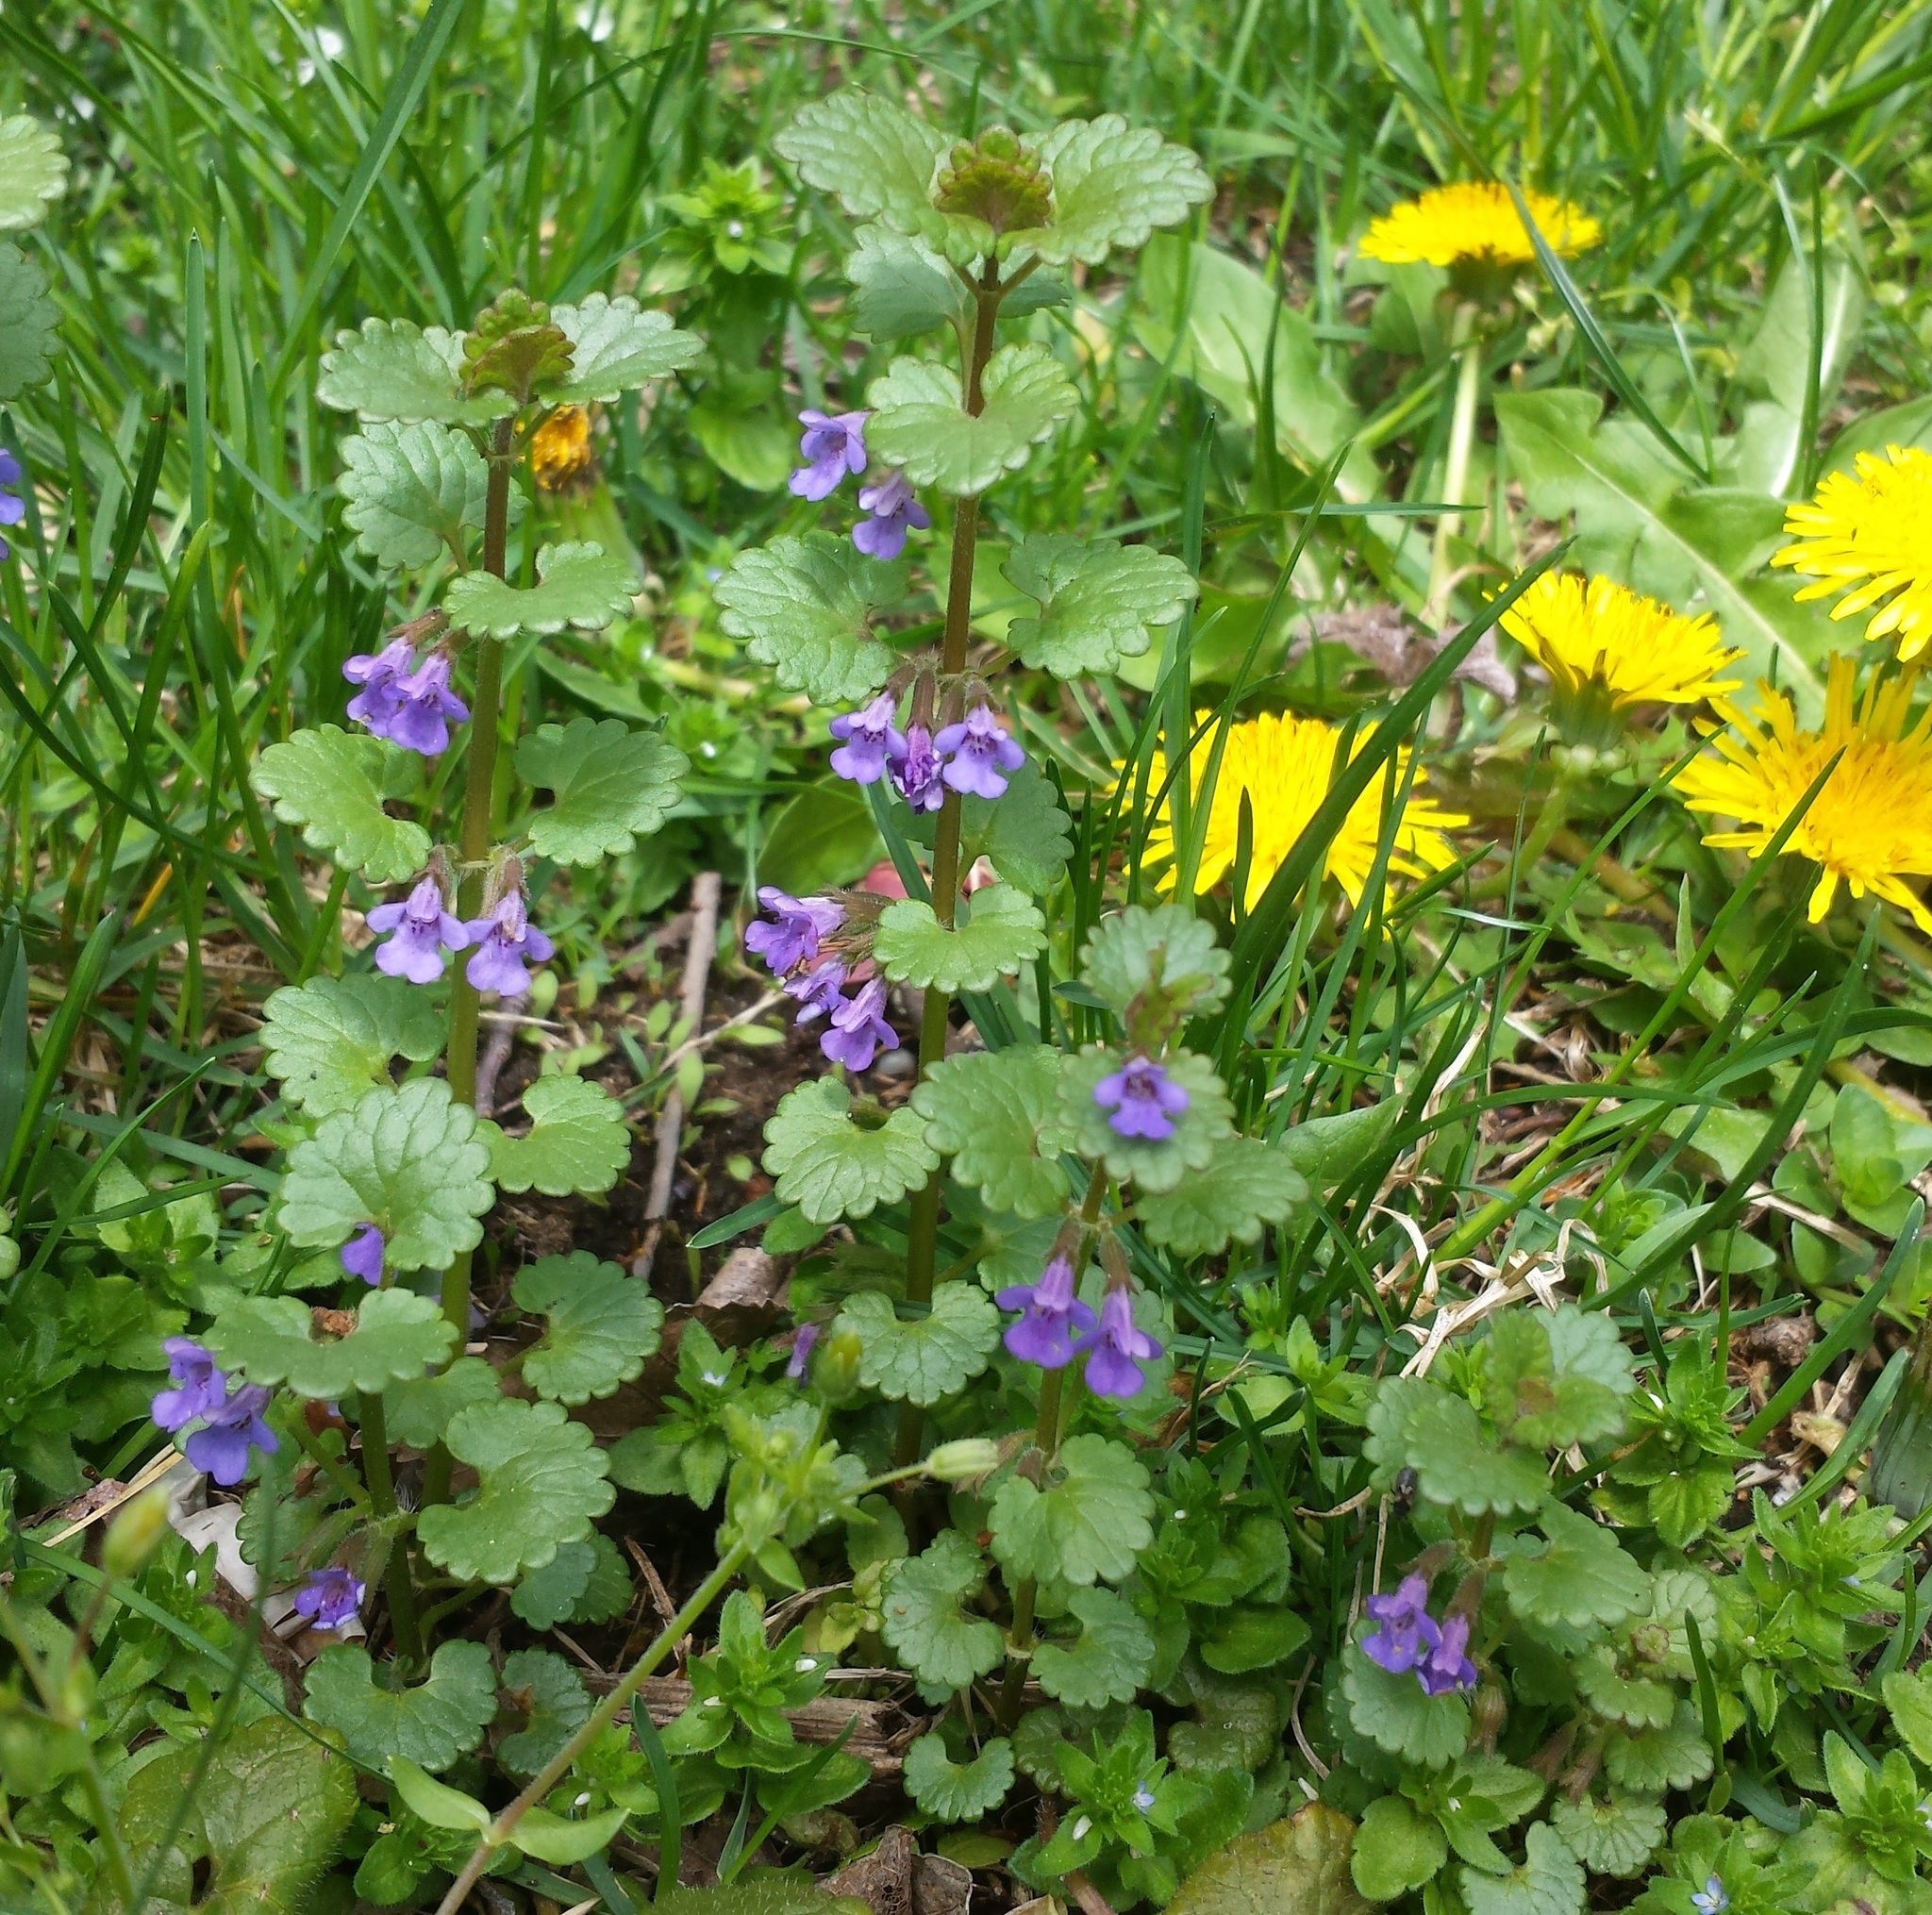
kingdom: Plantae
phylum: Tracheophyta
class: Magnoliopsida
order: Lamiales
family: Lamiaceae
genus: Glechoma
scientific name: Glechoma hederacea
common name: Ground ivy
